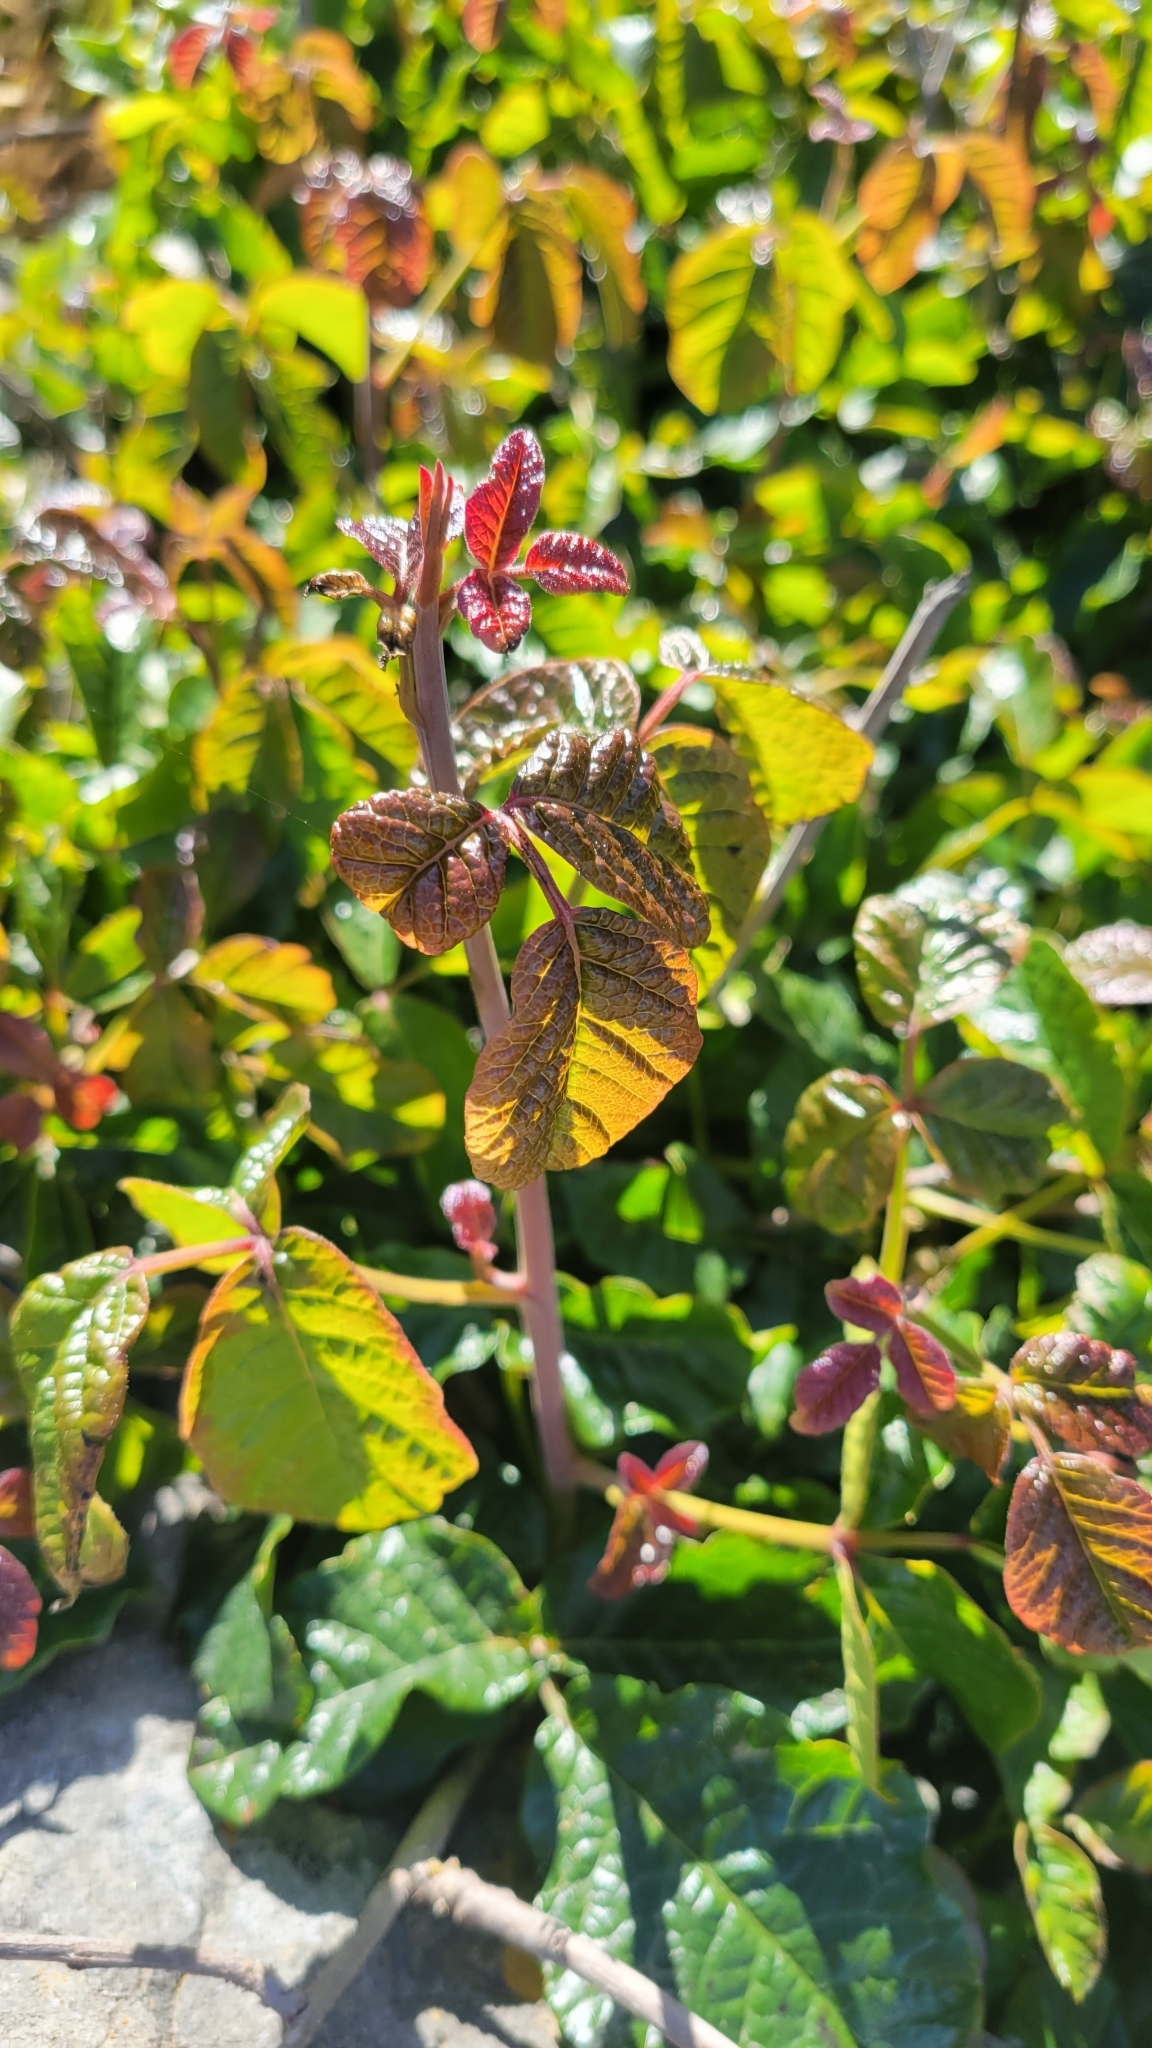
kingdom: Plantae
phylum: Tracheophyta
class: Magnoliopsida
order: Sapindales
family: Anacardiaceae
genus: Toxicodendron
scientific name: Toxicodendron diversilobum
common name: Pacific poison-oak
